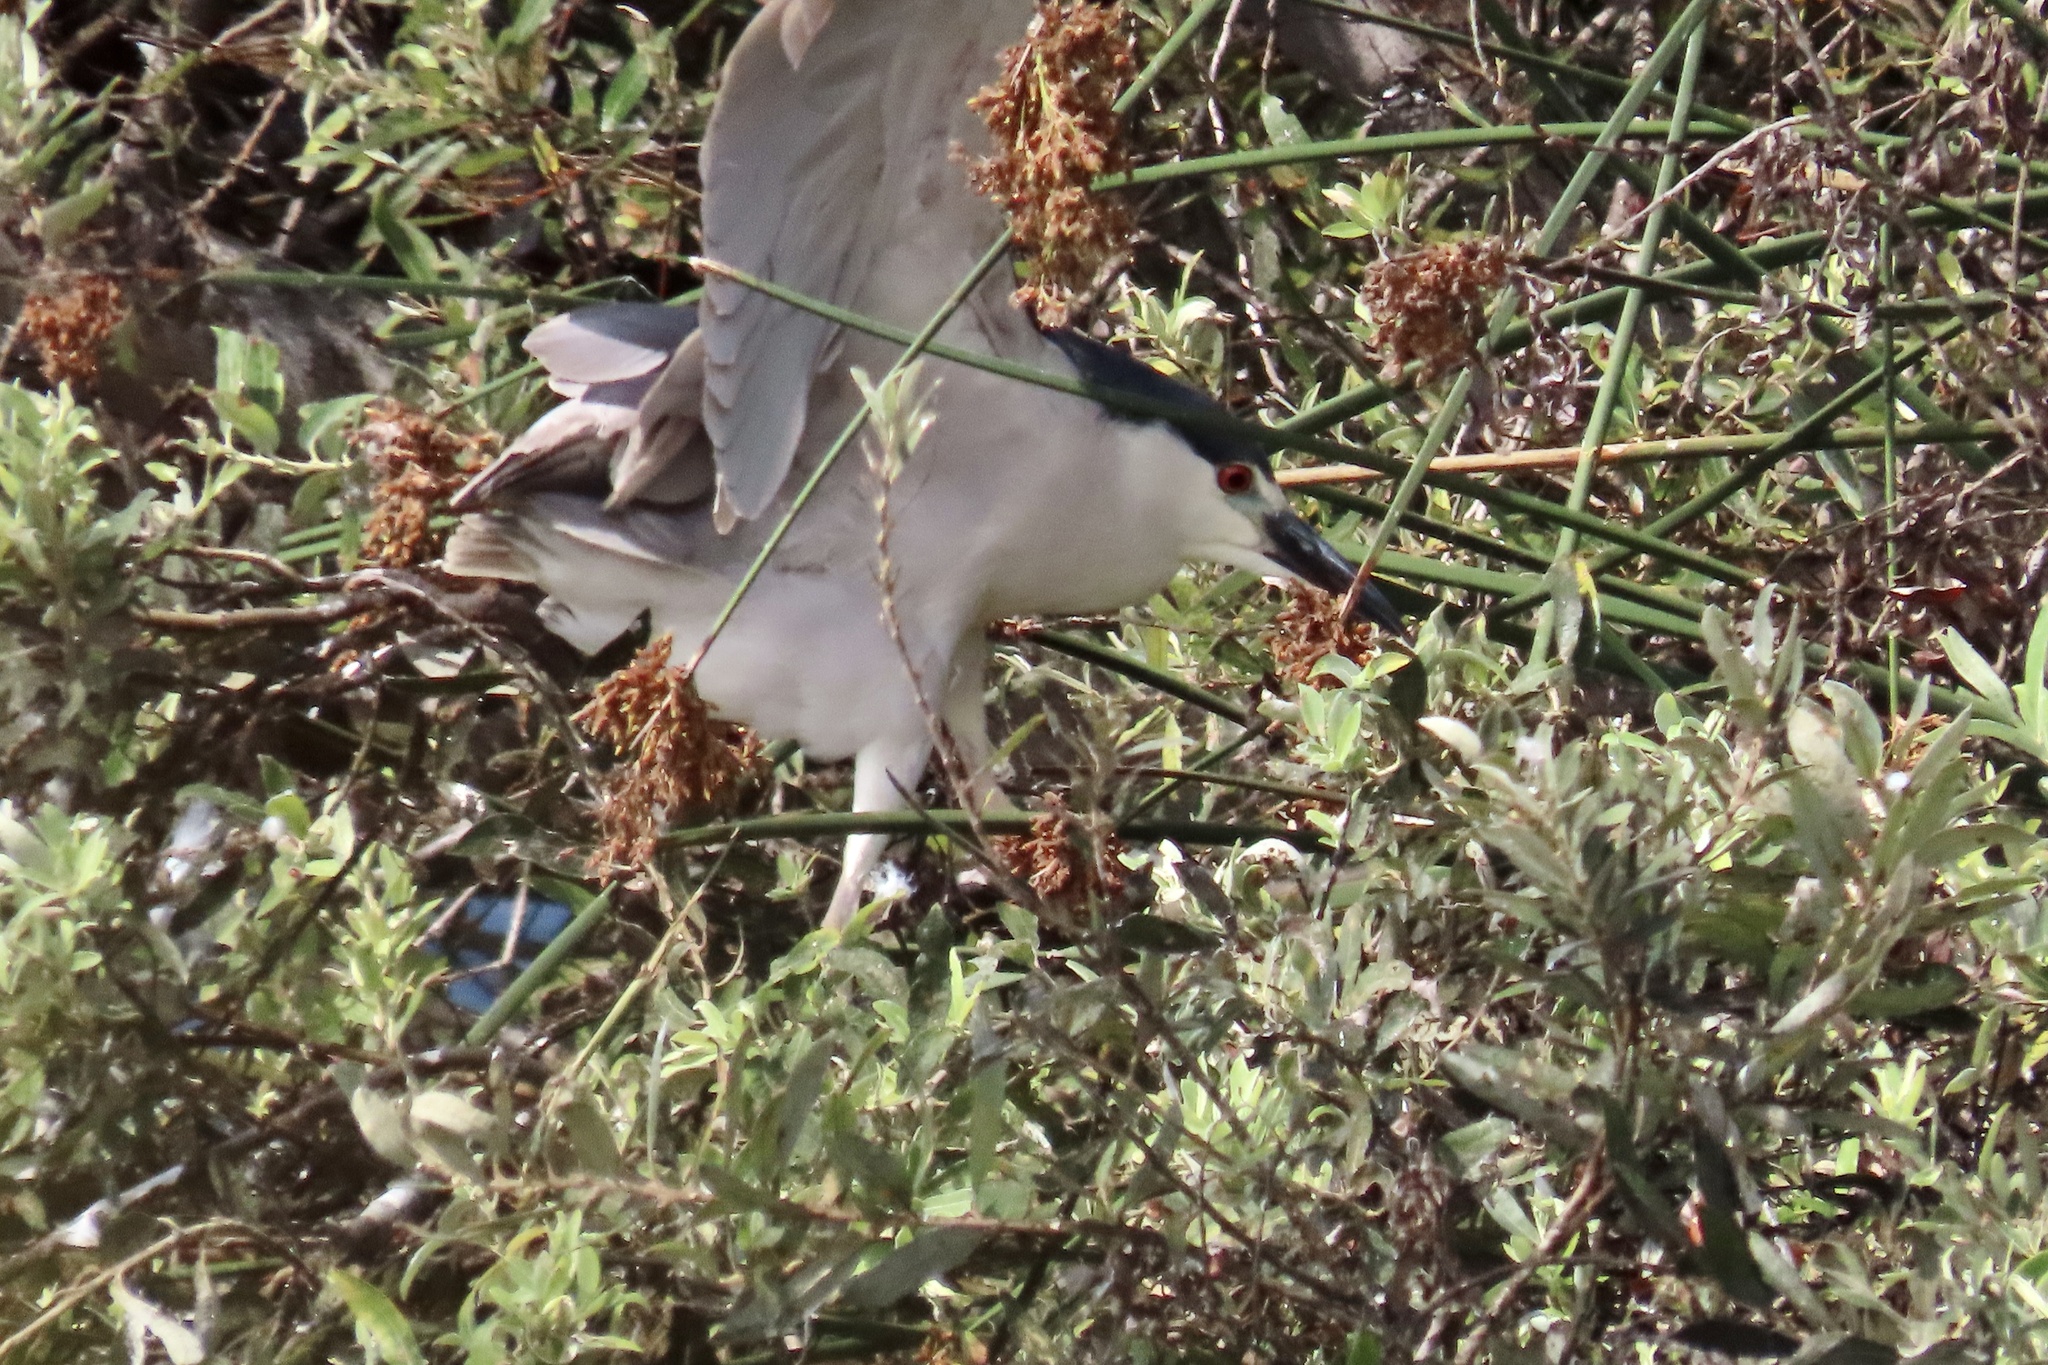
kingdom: Animalia
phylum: Chordata
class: Aves
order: Pelecaniformes
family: Ardeidae
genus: Nycticorax
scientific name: Nycticorax nycticorax
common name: Black-crowned night heron
